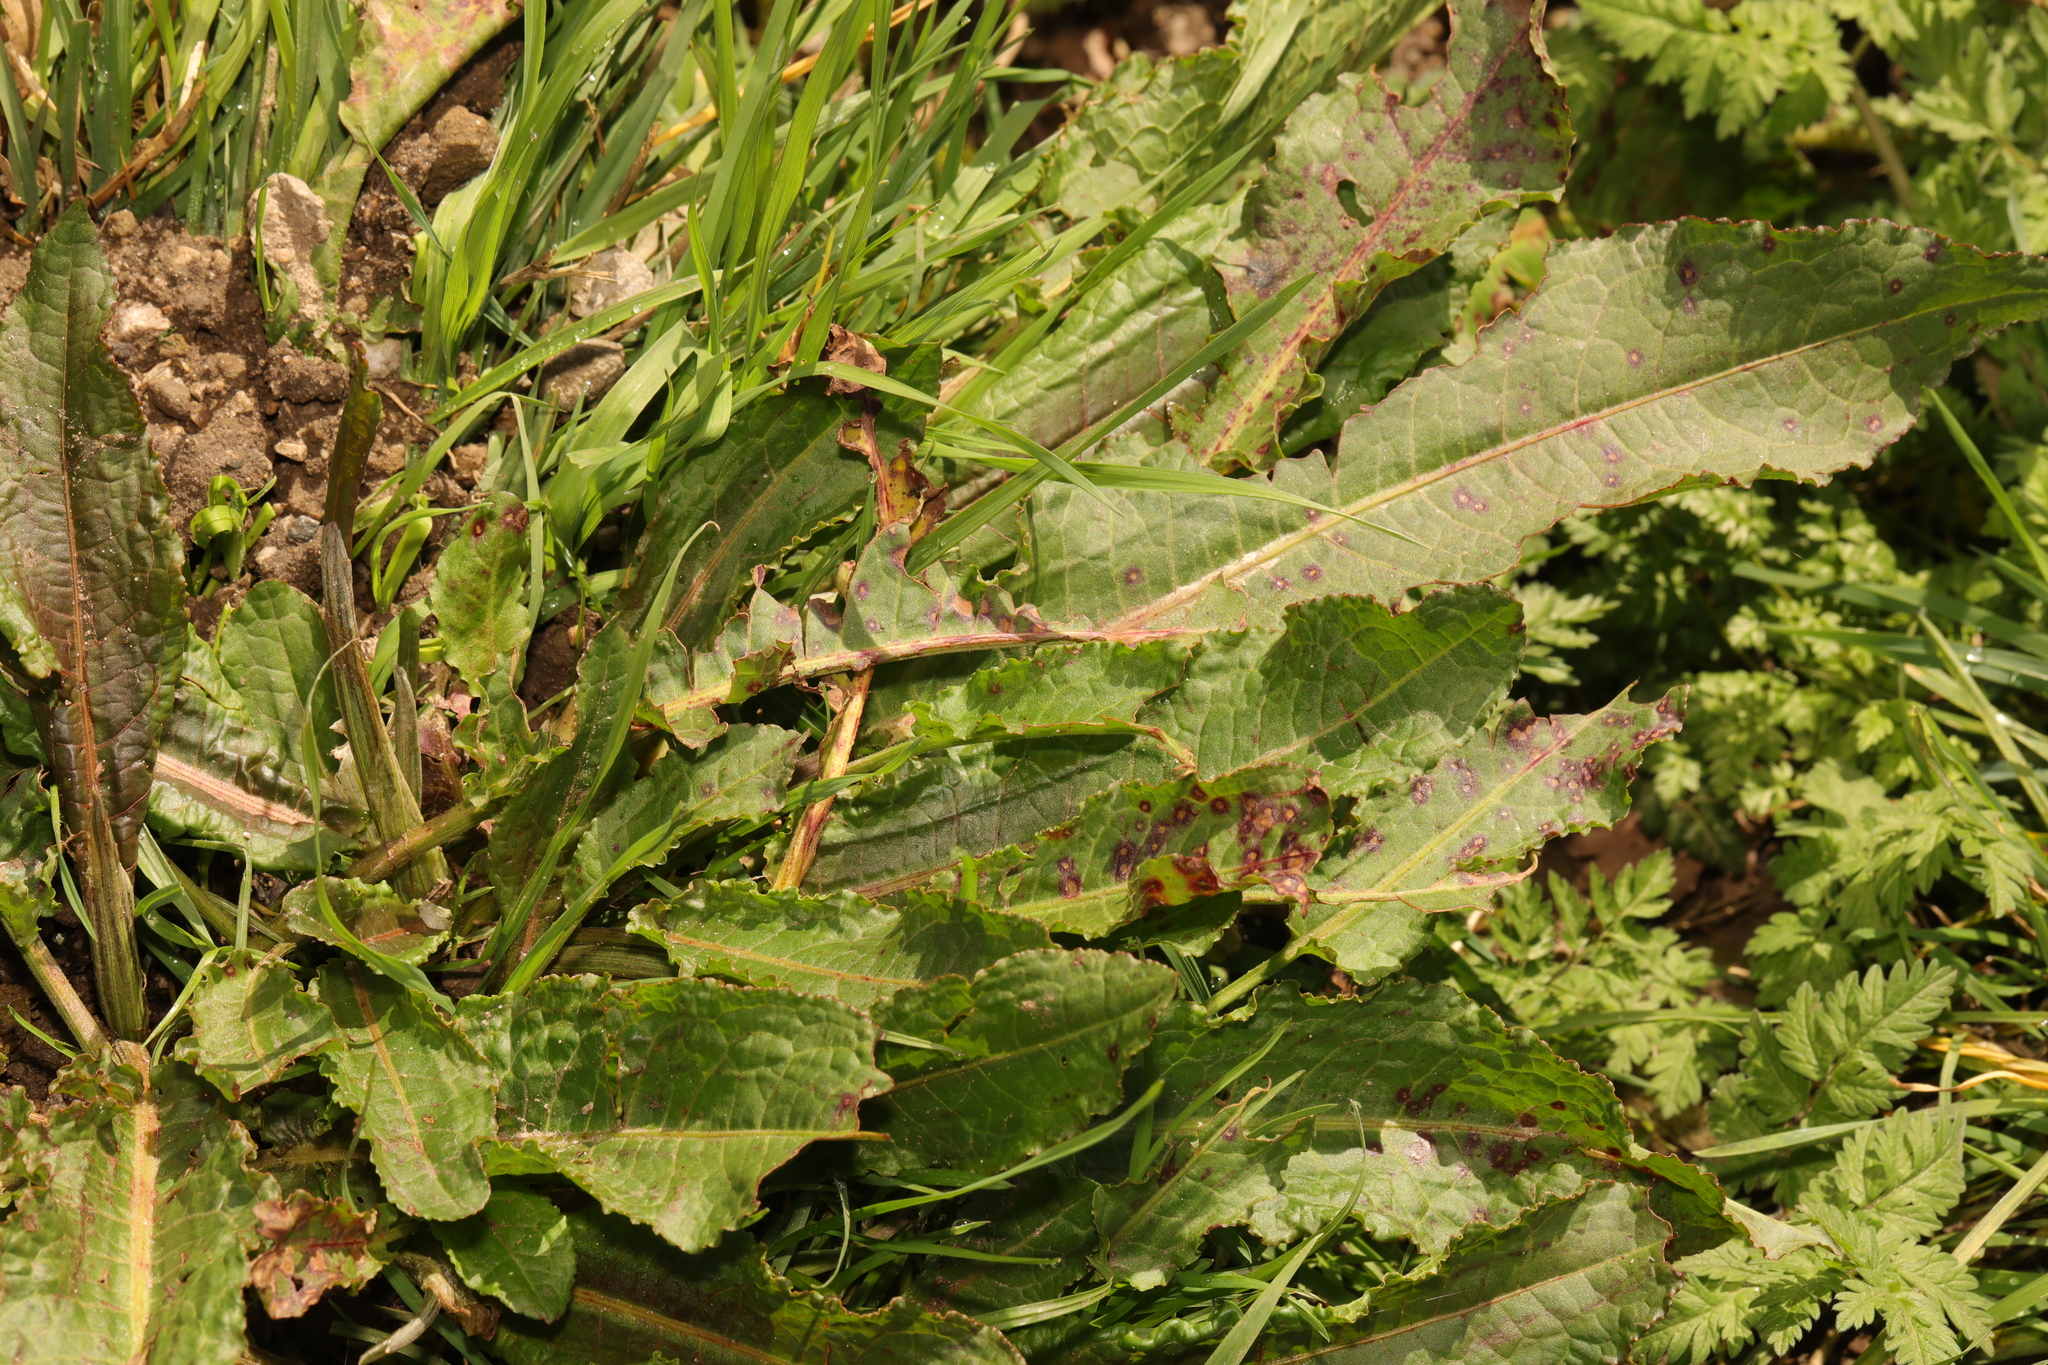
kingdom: Plantae
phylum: Tracheophyta
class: Magnoliopsida
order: Caryophyllales
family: Polygonaceae
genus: Rumex
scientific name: Rumex crispus
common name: Curled dock
